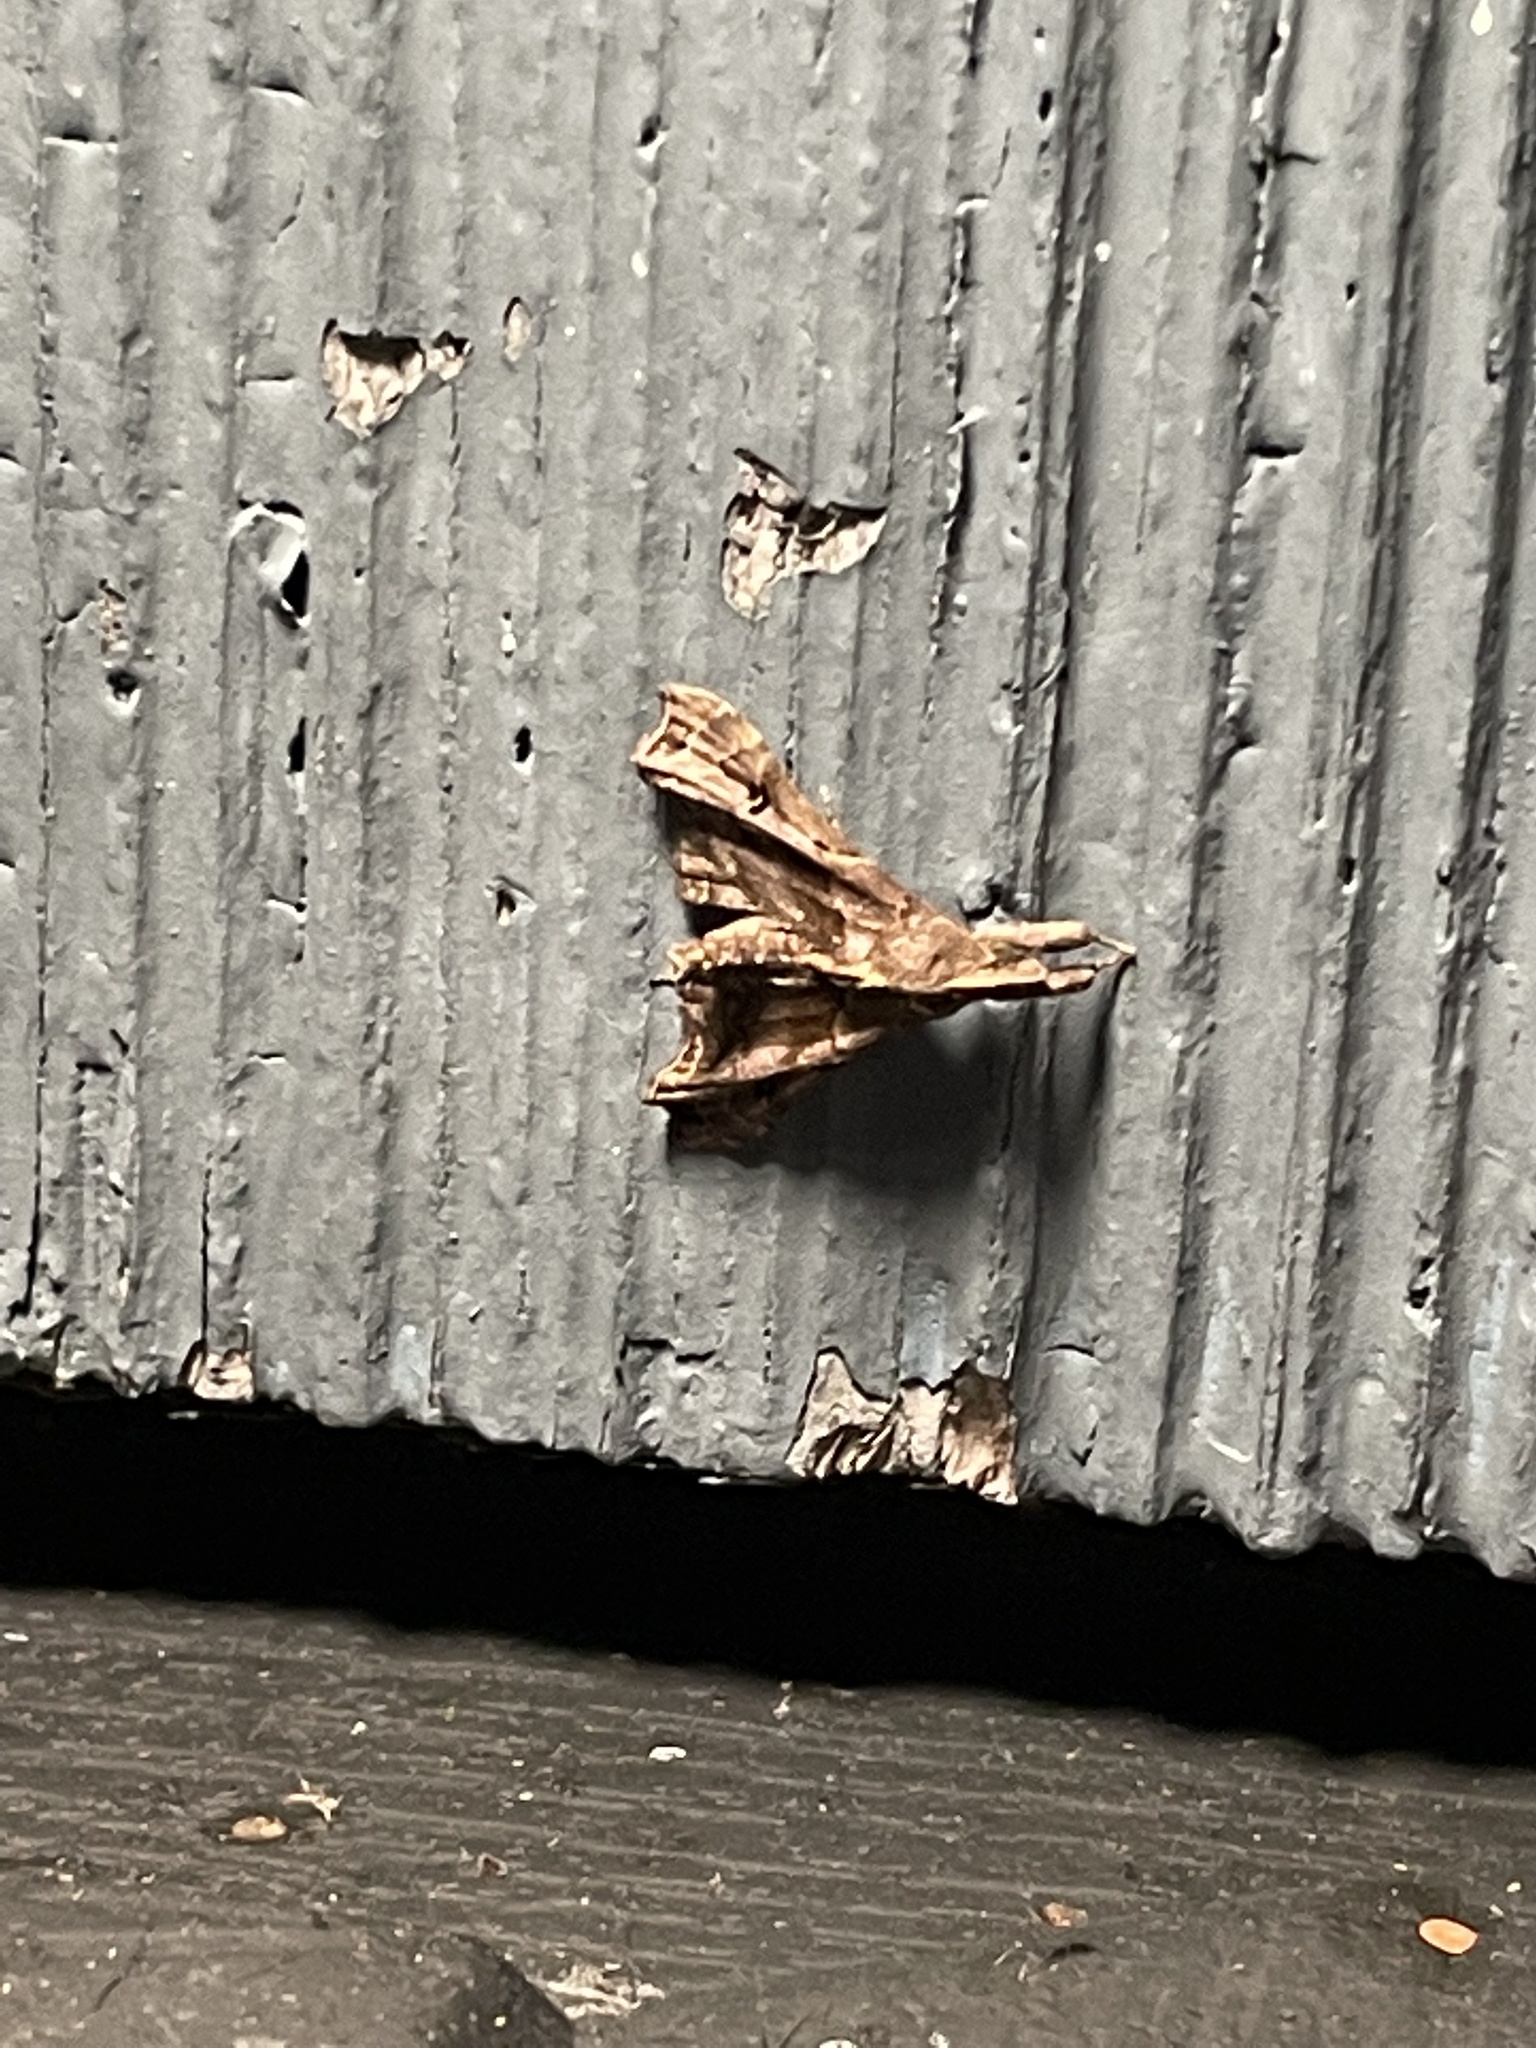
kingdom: Animalia
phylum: Arthropoda
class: Insecta
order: Lepidoptera
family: Erebidae
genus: Palthis
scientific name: Palthis asopialis
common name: Faint-spotted palthis moth
